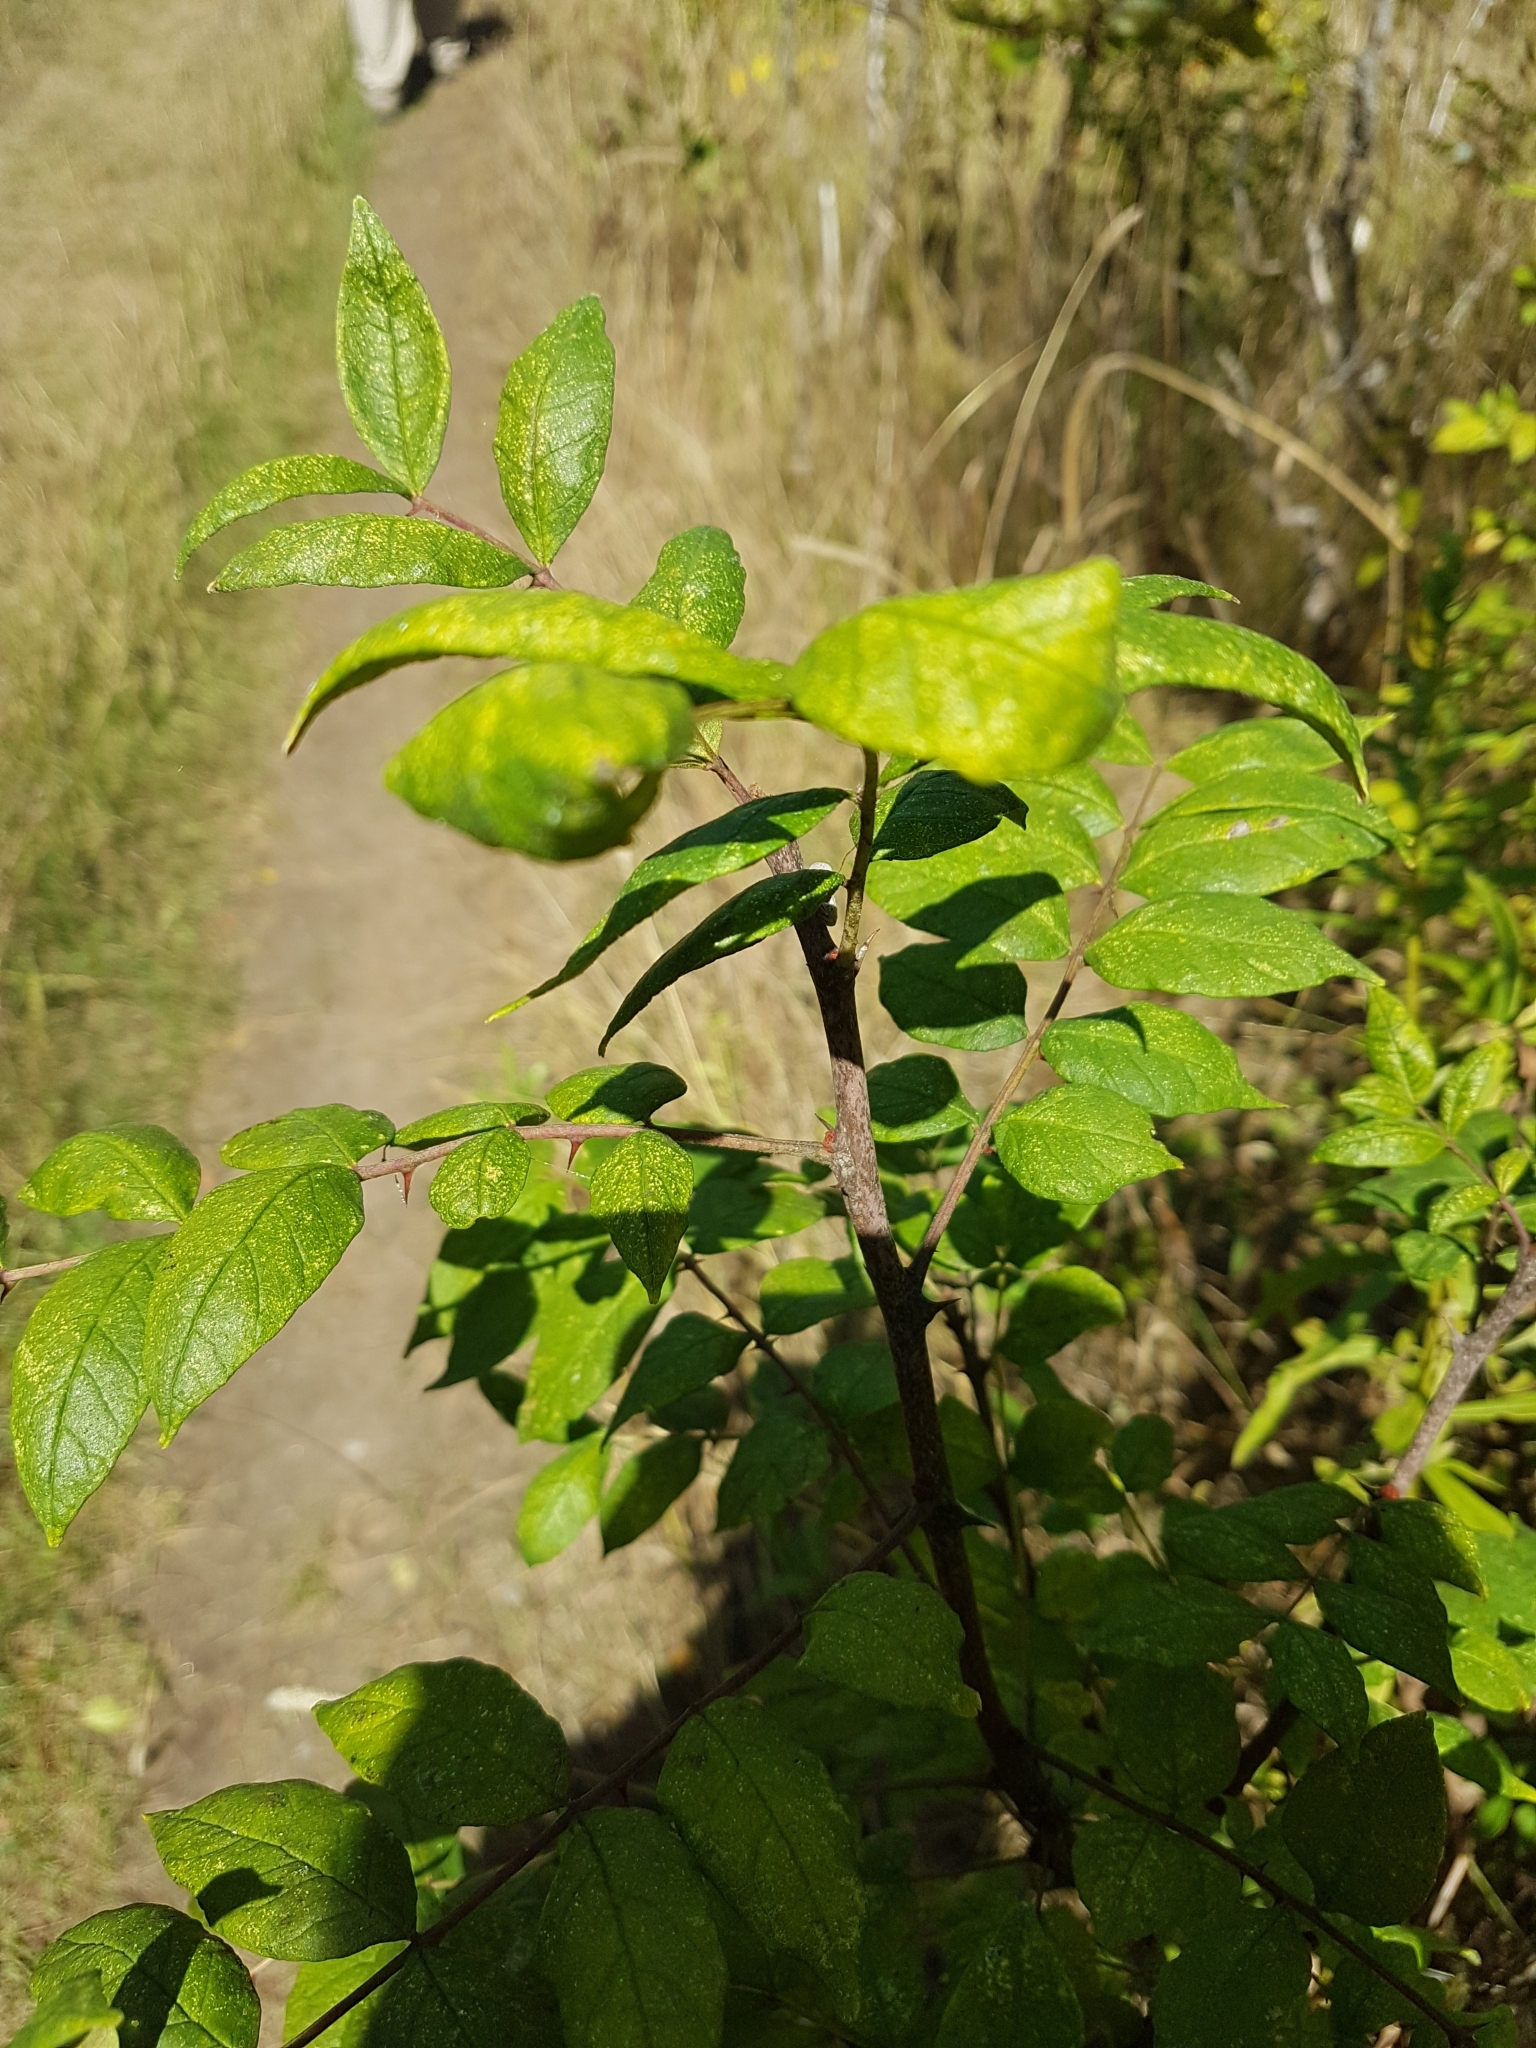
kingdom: Plantae
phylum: Tracheophyta
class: Magnoliopsida
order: Sapindales
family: Rutaceae
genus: Zanthoxylum
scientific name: Zanthoxylum americanum
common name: Northern prickly-ash
